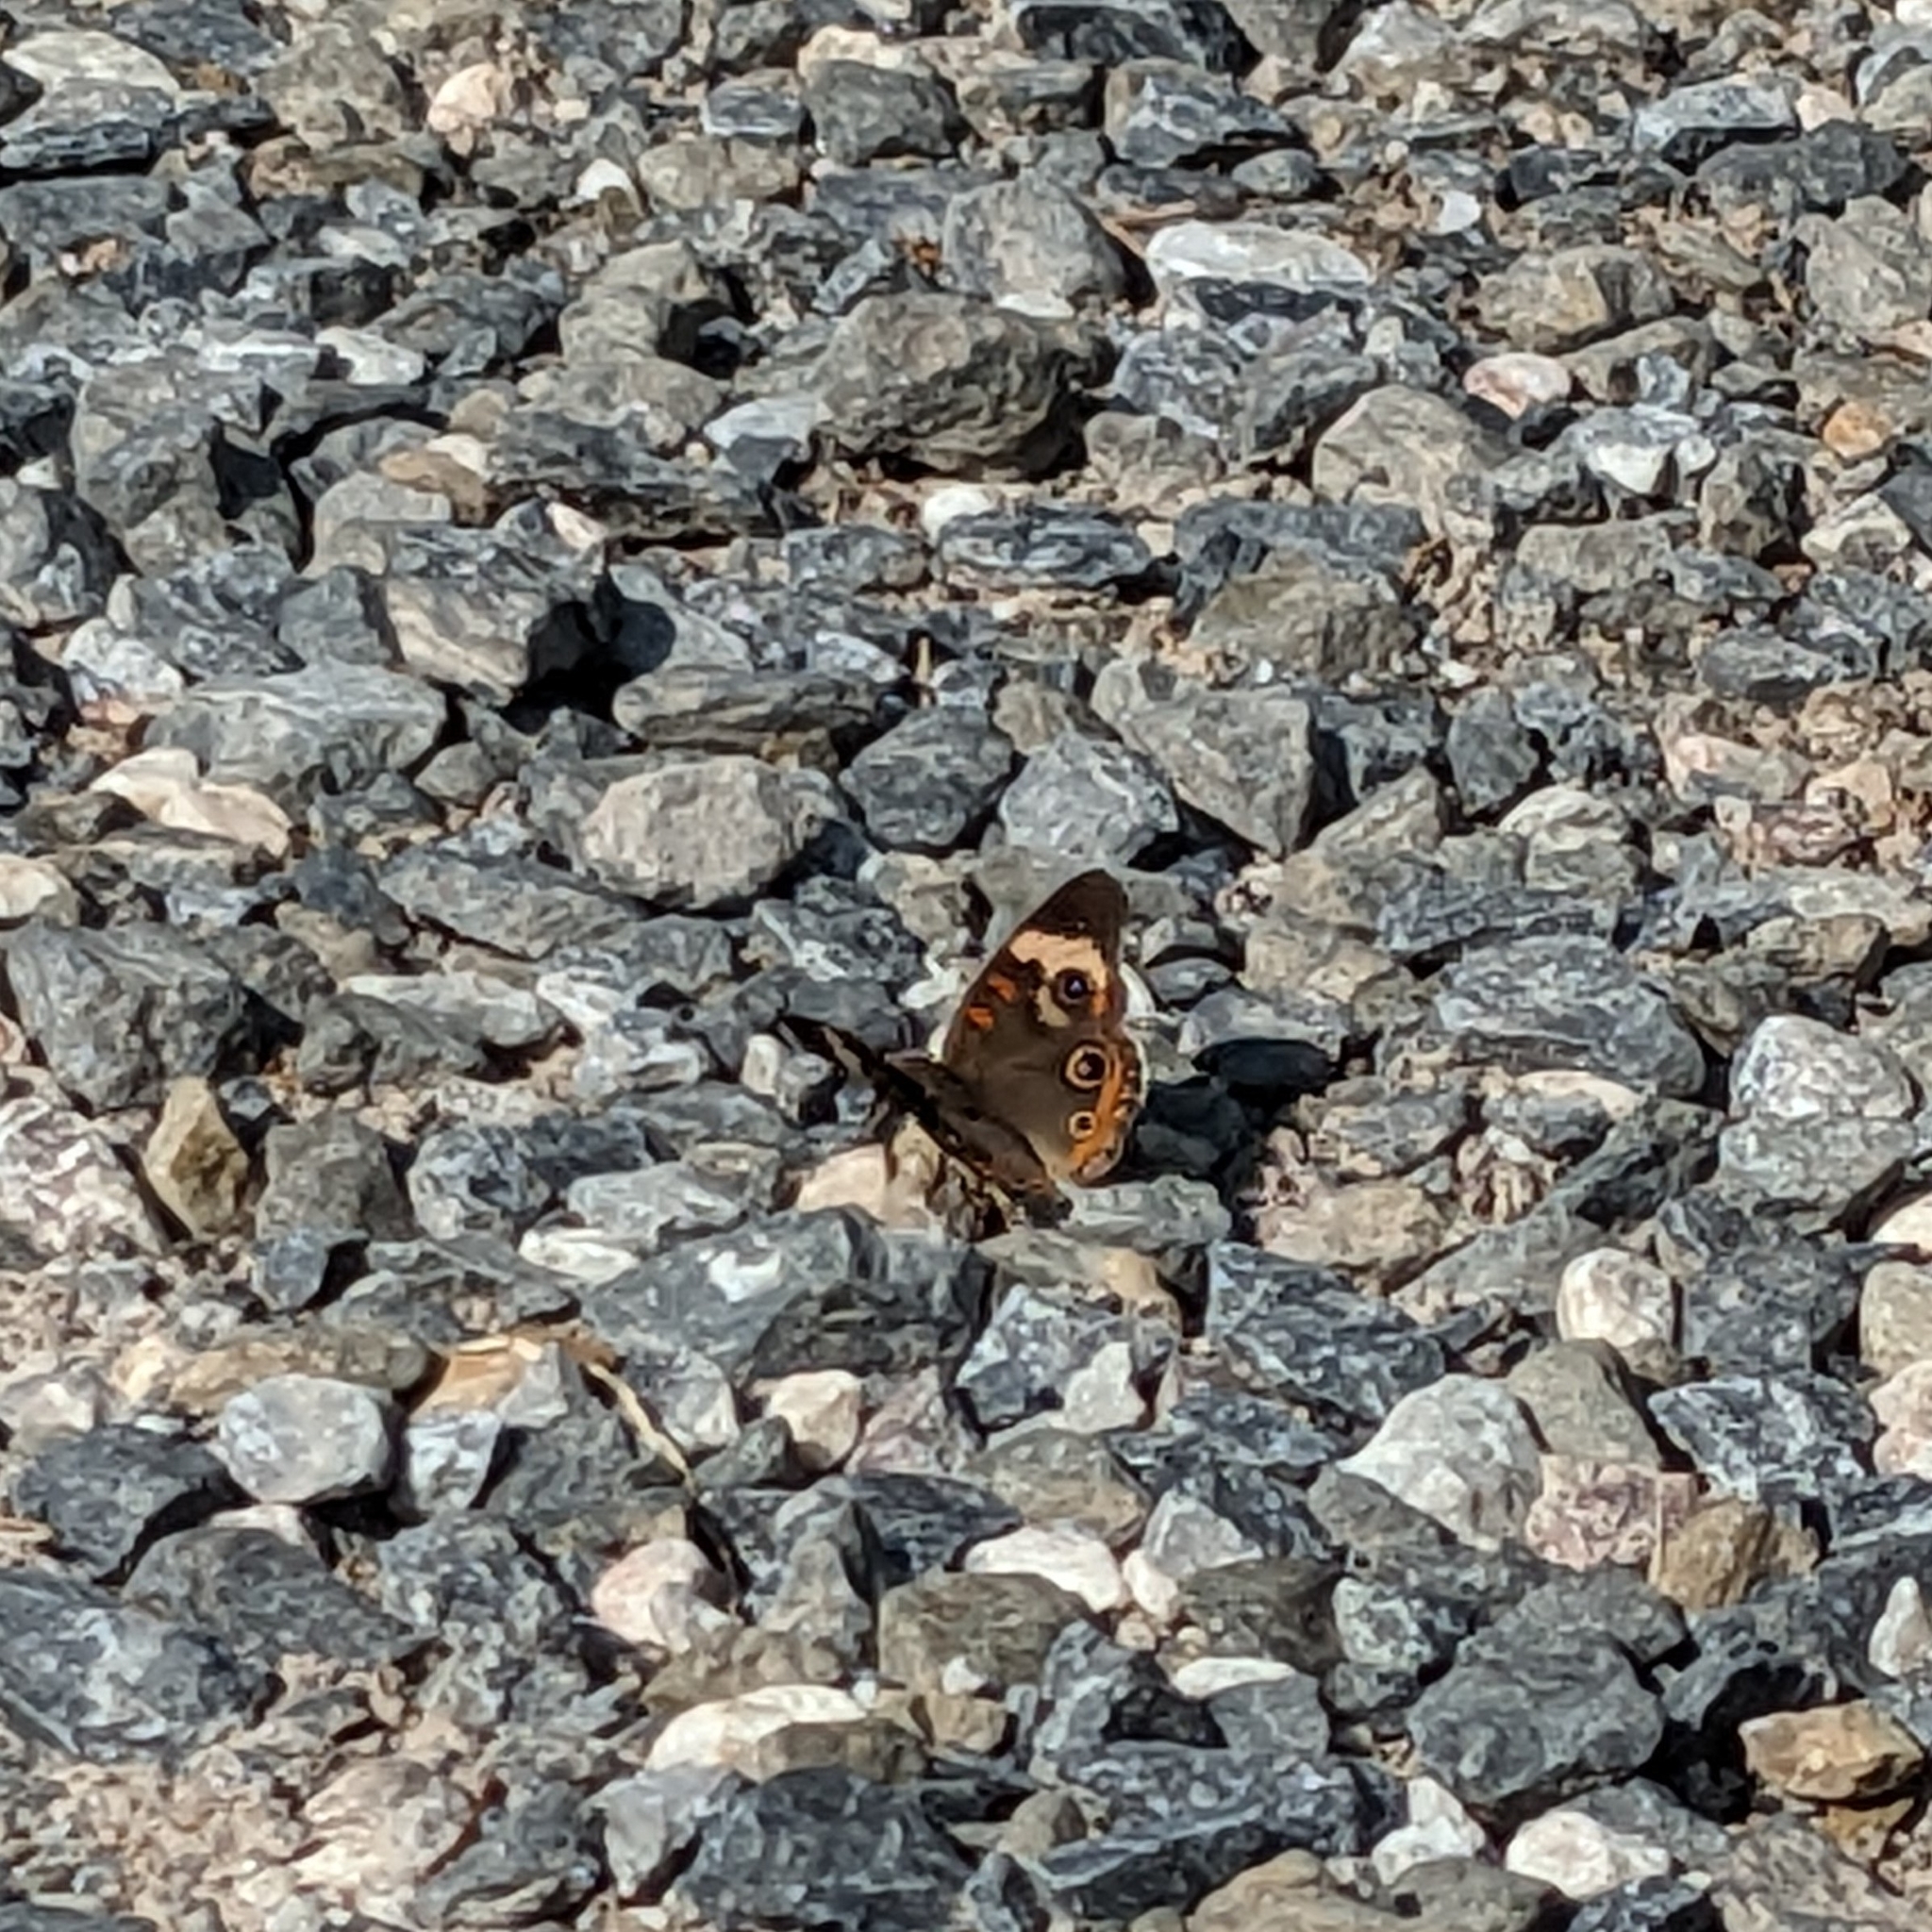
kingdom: Animalia
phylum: Arthropoda
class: Insecta
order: Lepidoptera
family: Nymphalidae
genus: Junonia
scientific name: Junonia coenia
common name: Common buckeye
